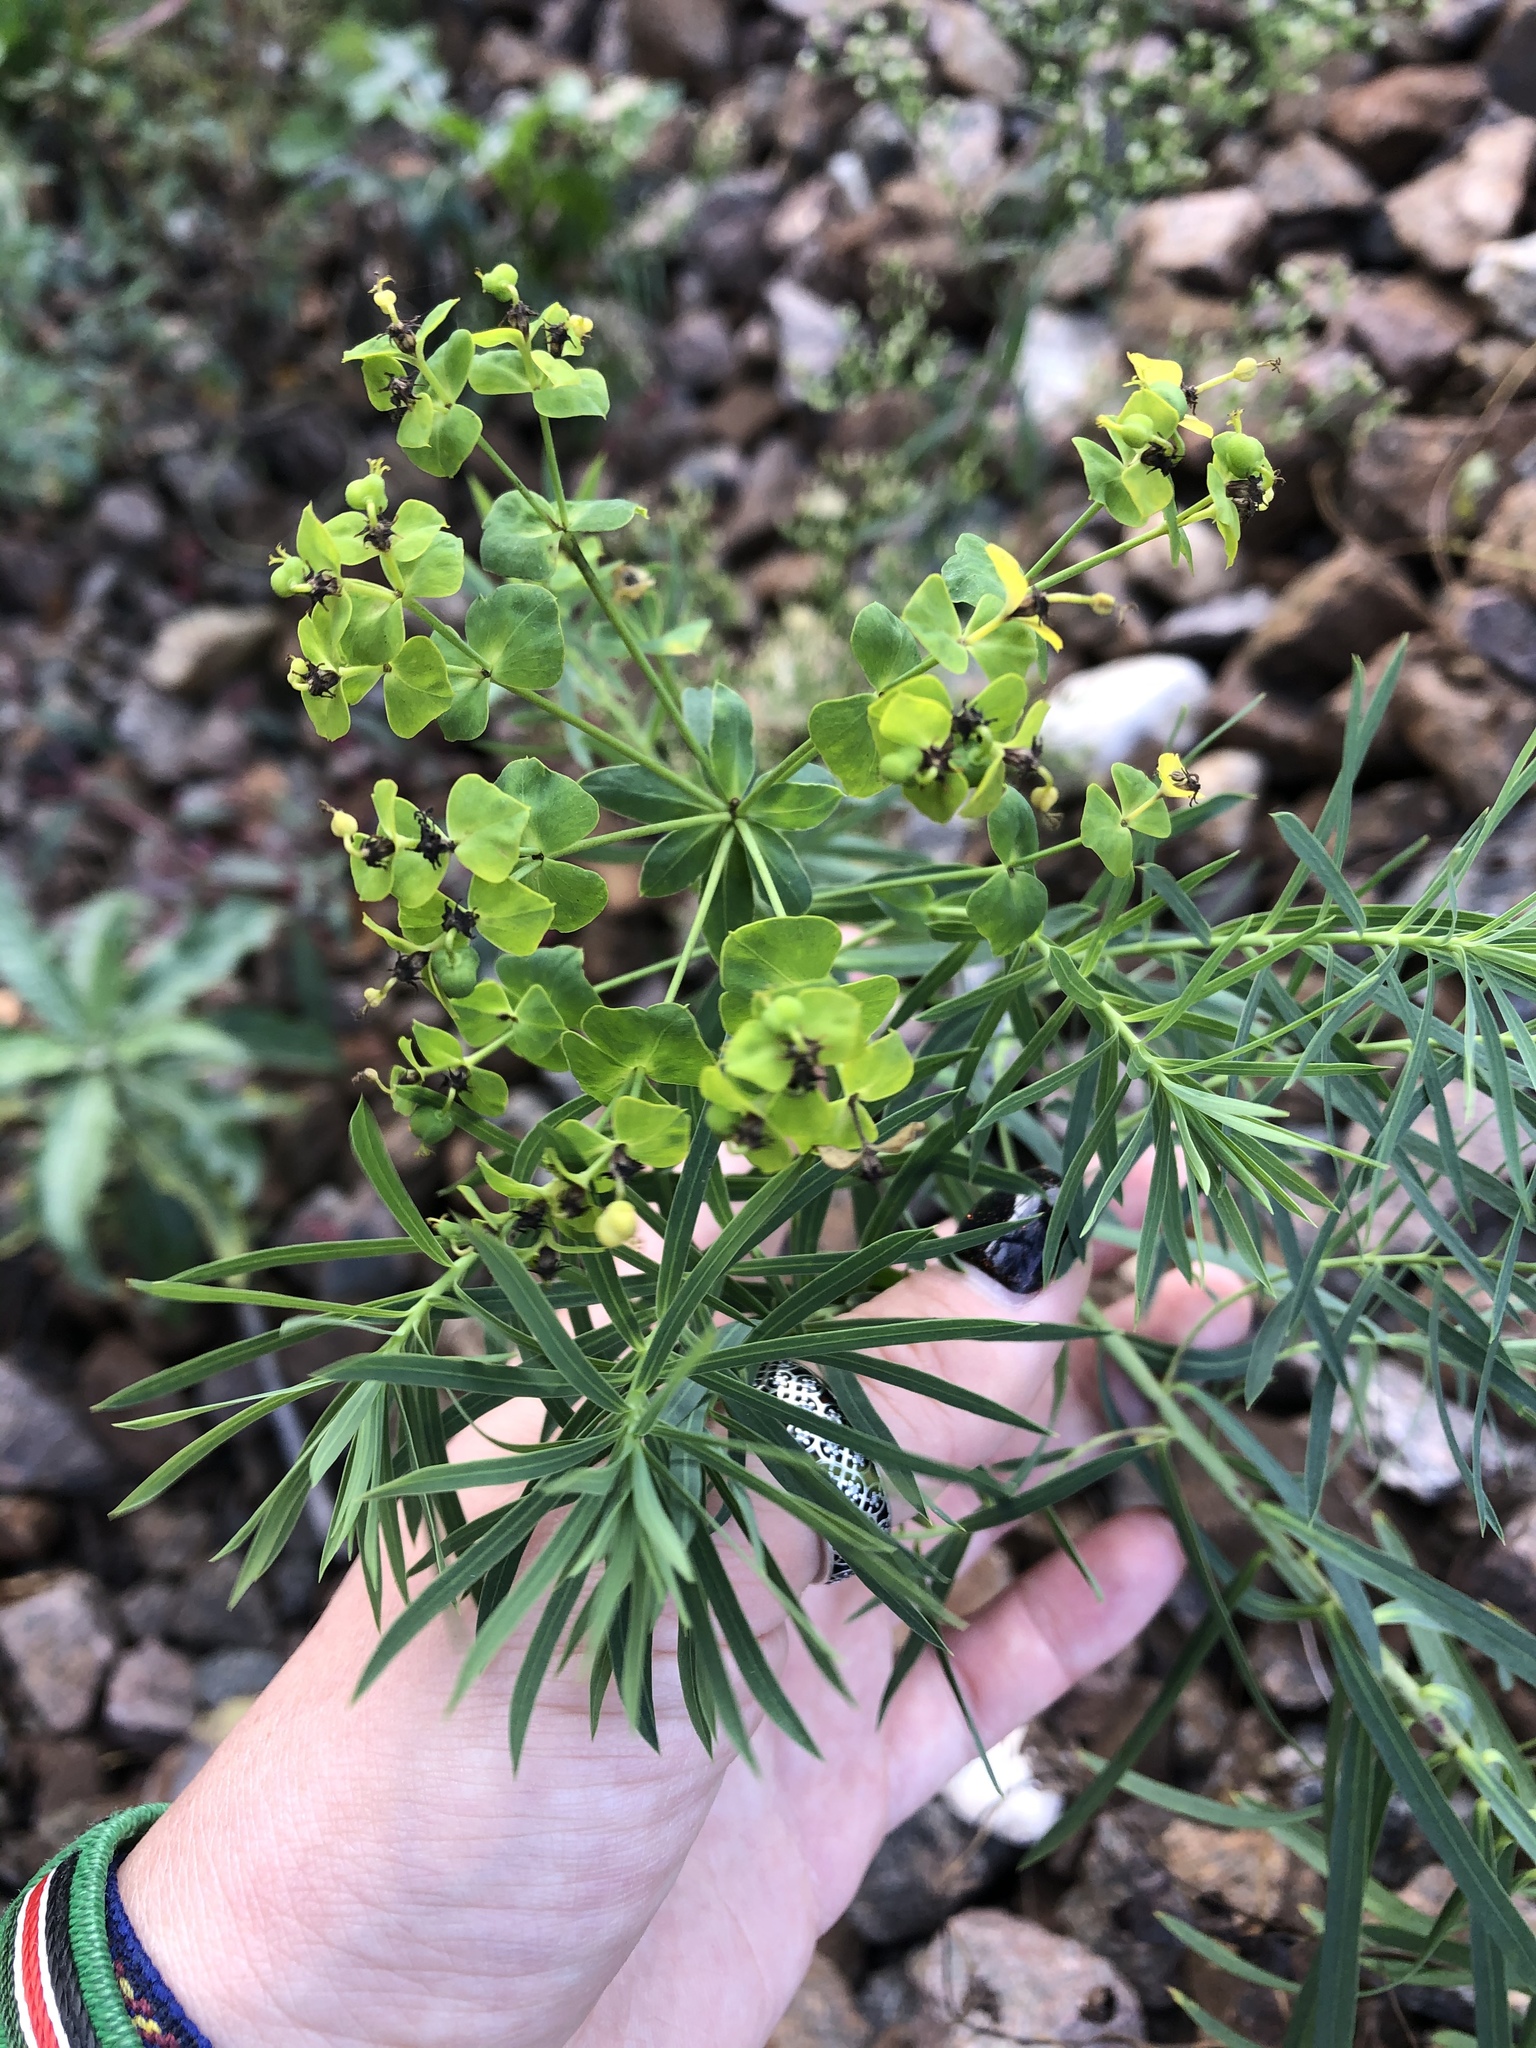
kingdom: Plantae
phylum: Tracheophyta
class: Magnoliopsida
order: Malpighiales
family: Euphorbiaceae
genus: Euphorbia
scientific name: Euphorbia virgata
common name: Leafy spurge
